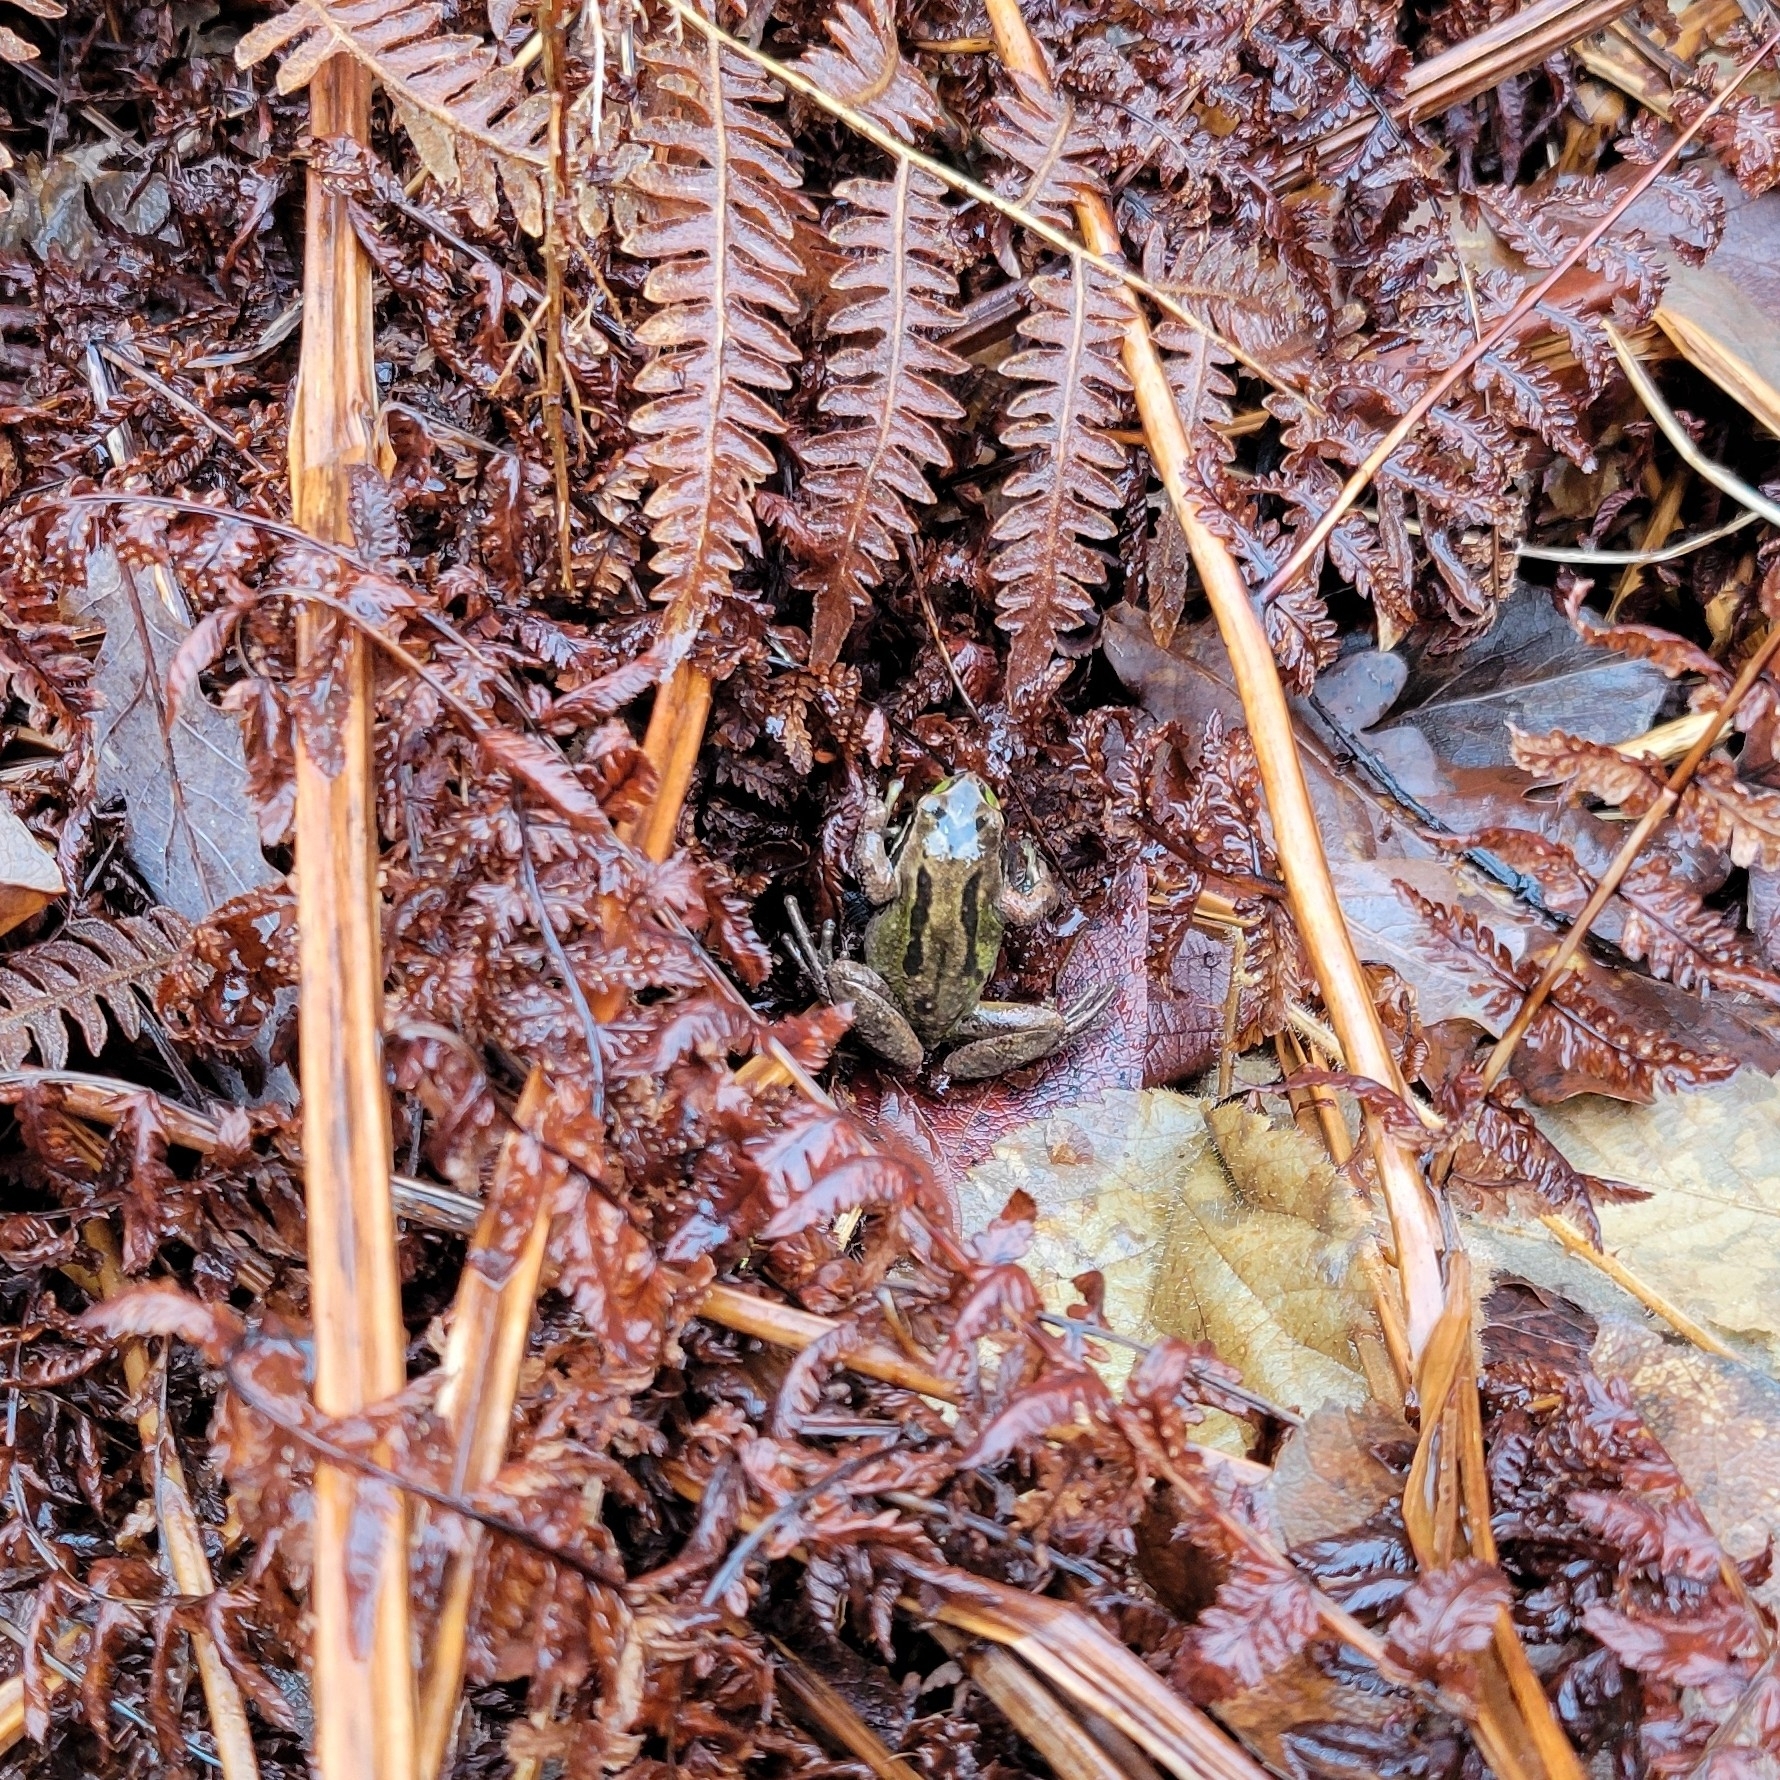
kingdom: Animalia
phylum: Chordata
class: Amphibia
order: Anura
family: Hylidae
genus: Pseudacris
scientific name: Pseudacris regilla
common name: Pacific chorus frog
